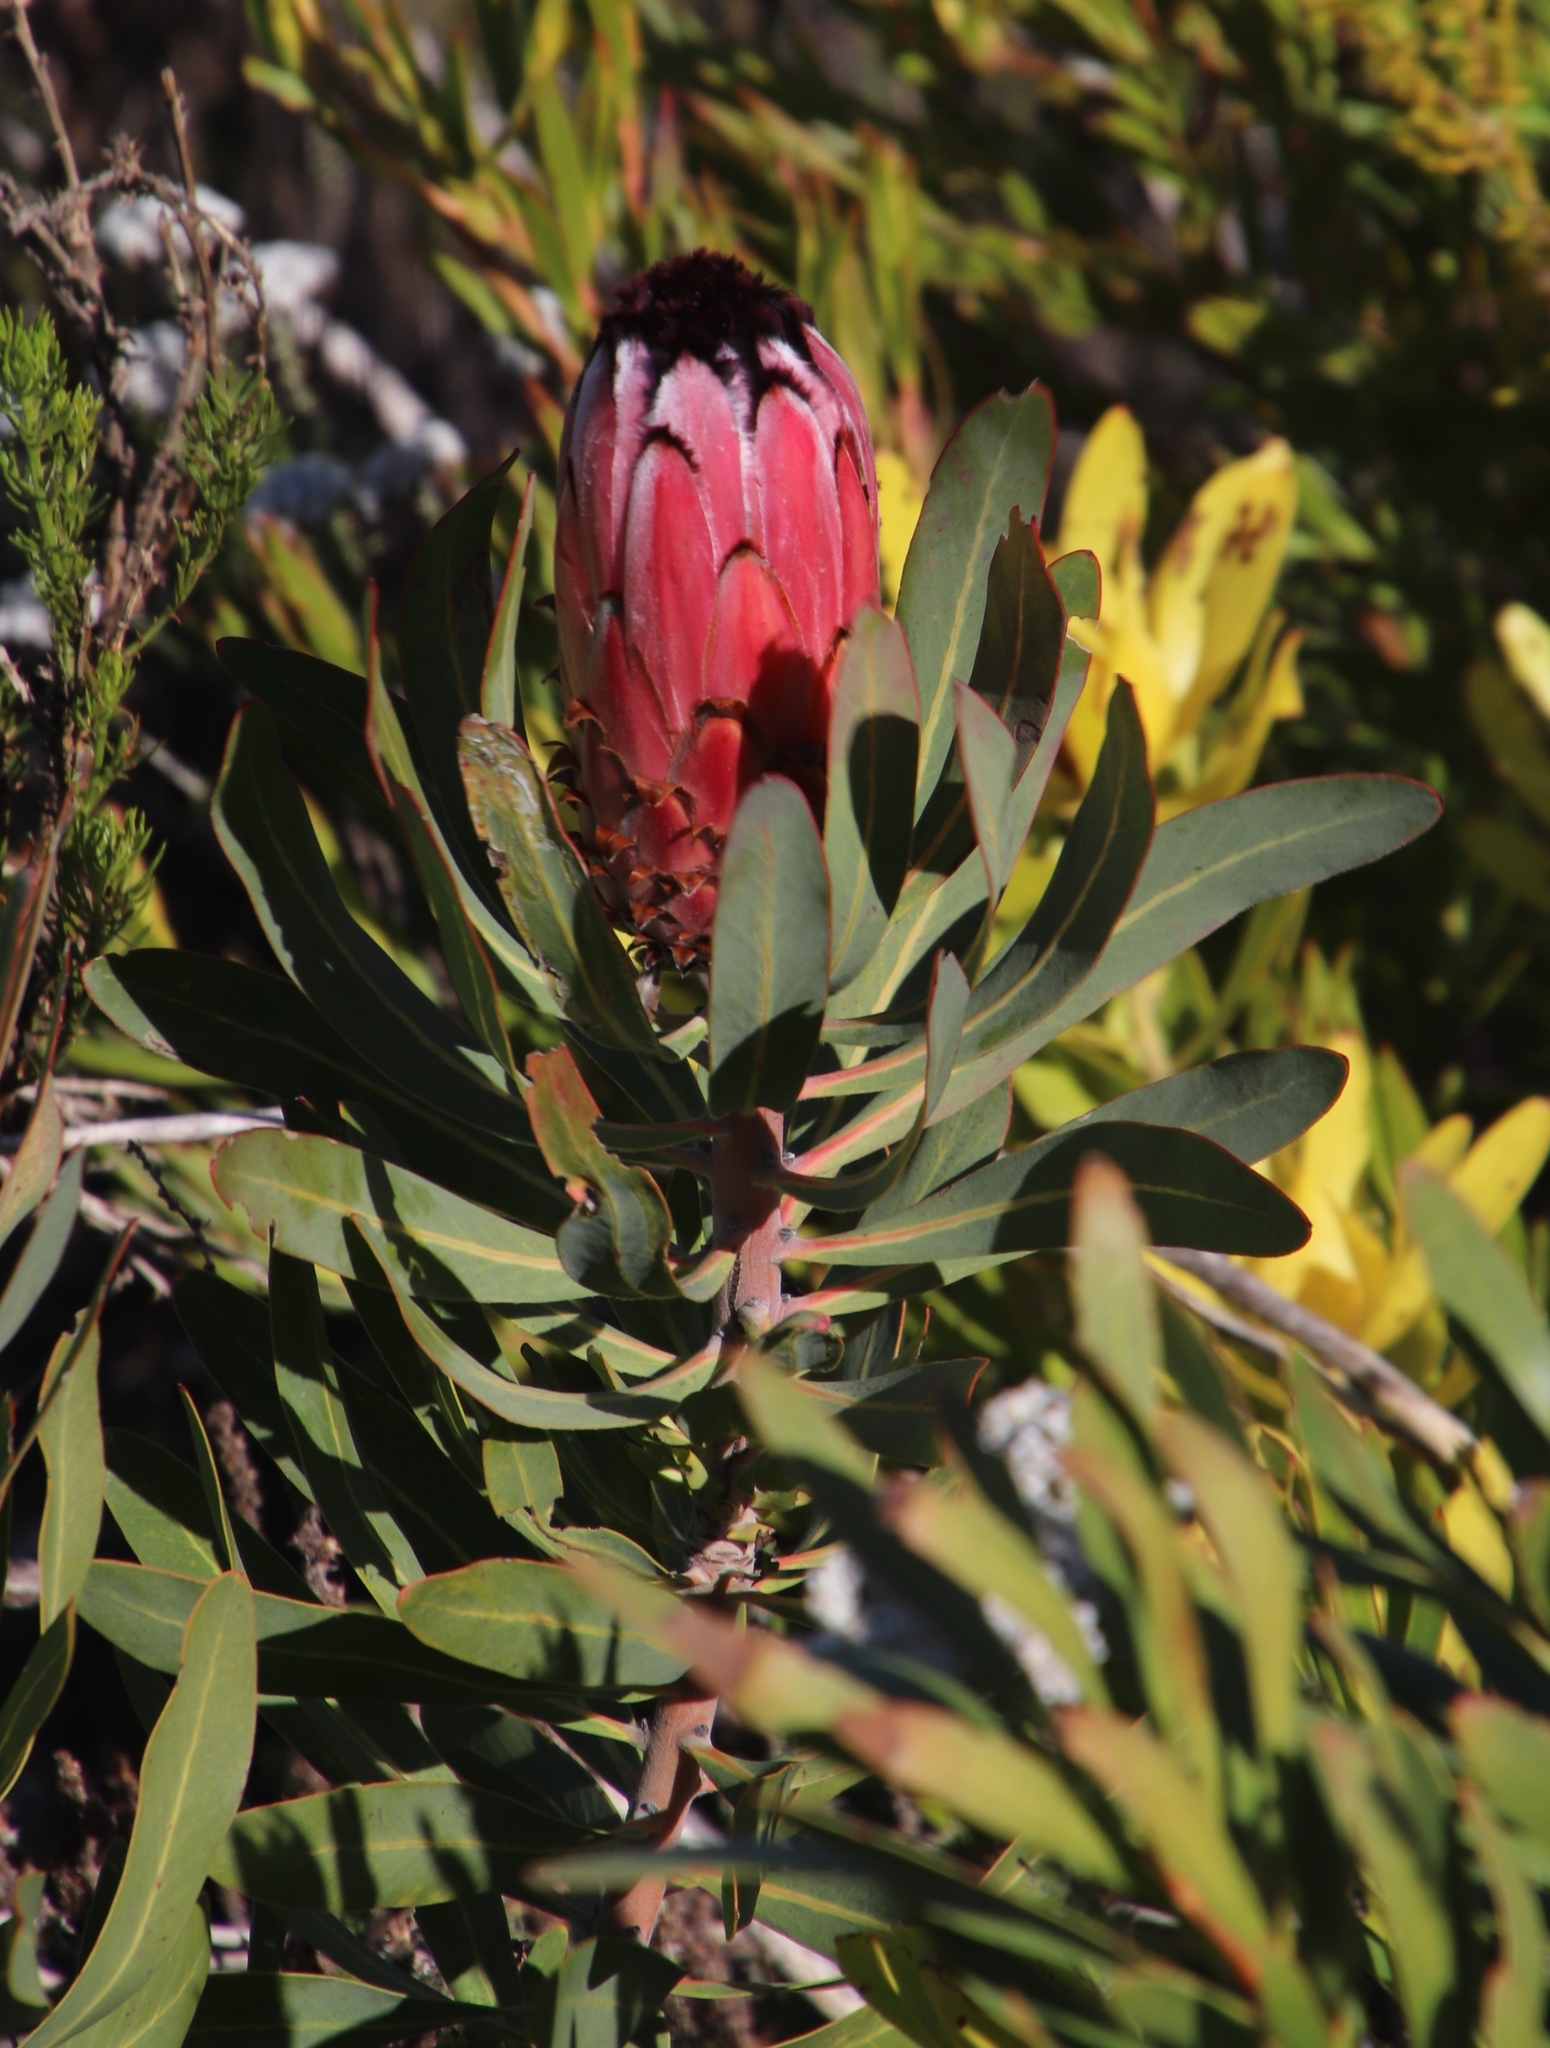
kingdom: Plantae
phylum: Tracheophyta
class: Magnoliopsida
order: Proteales
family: Proteaceae
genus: Protea
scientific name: Protea neriifolia
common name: Blue sugarbush
